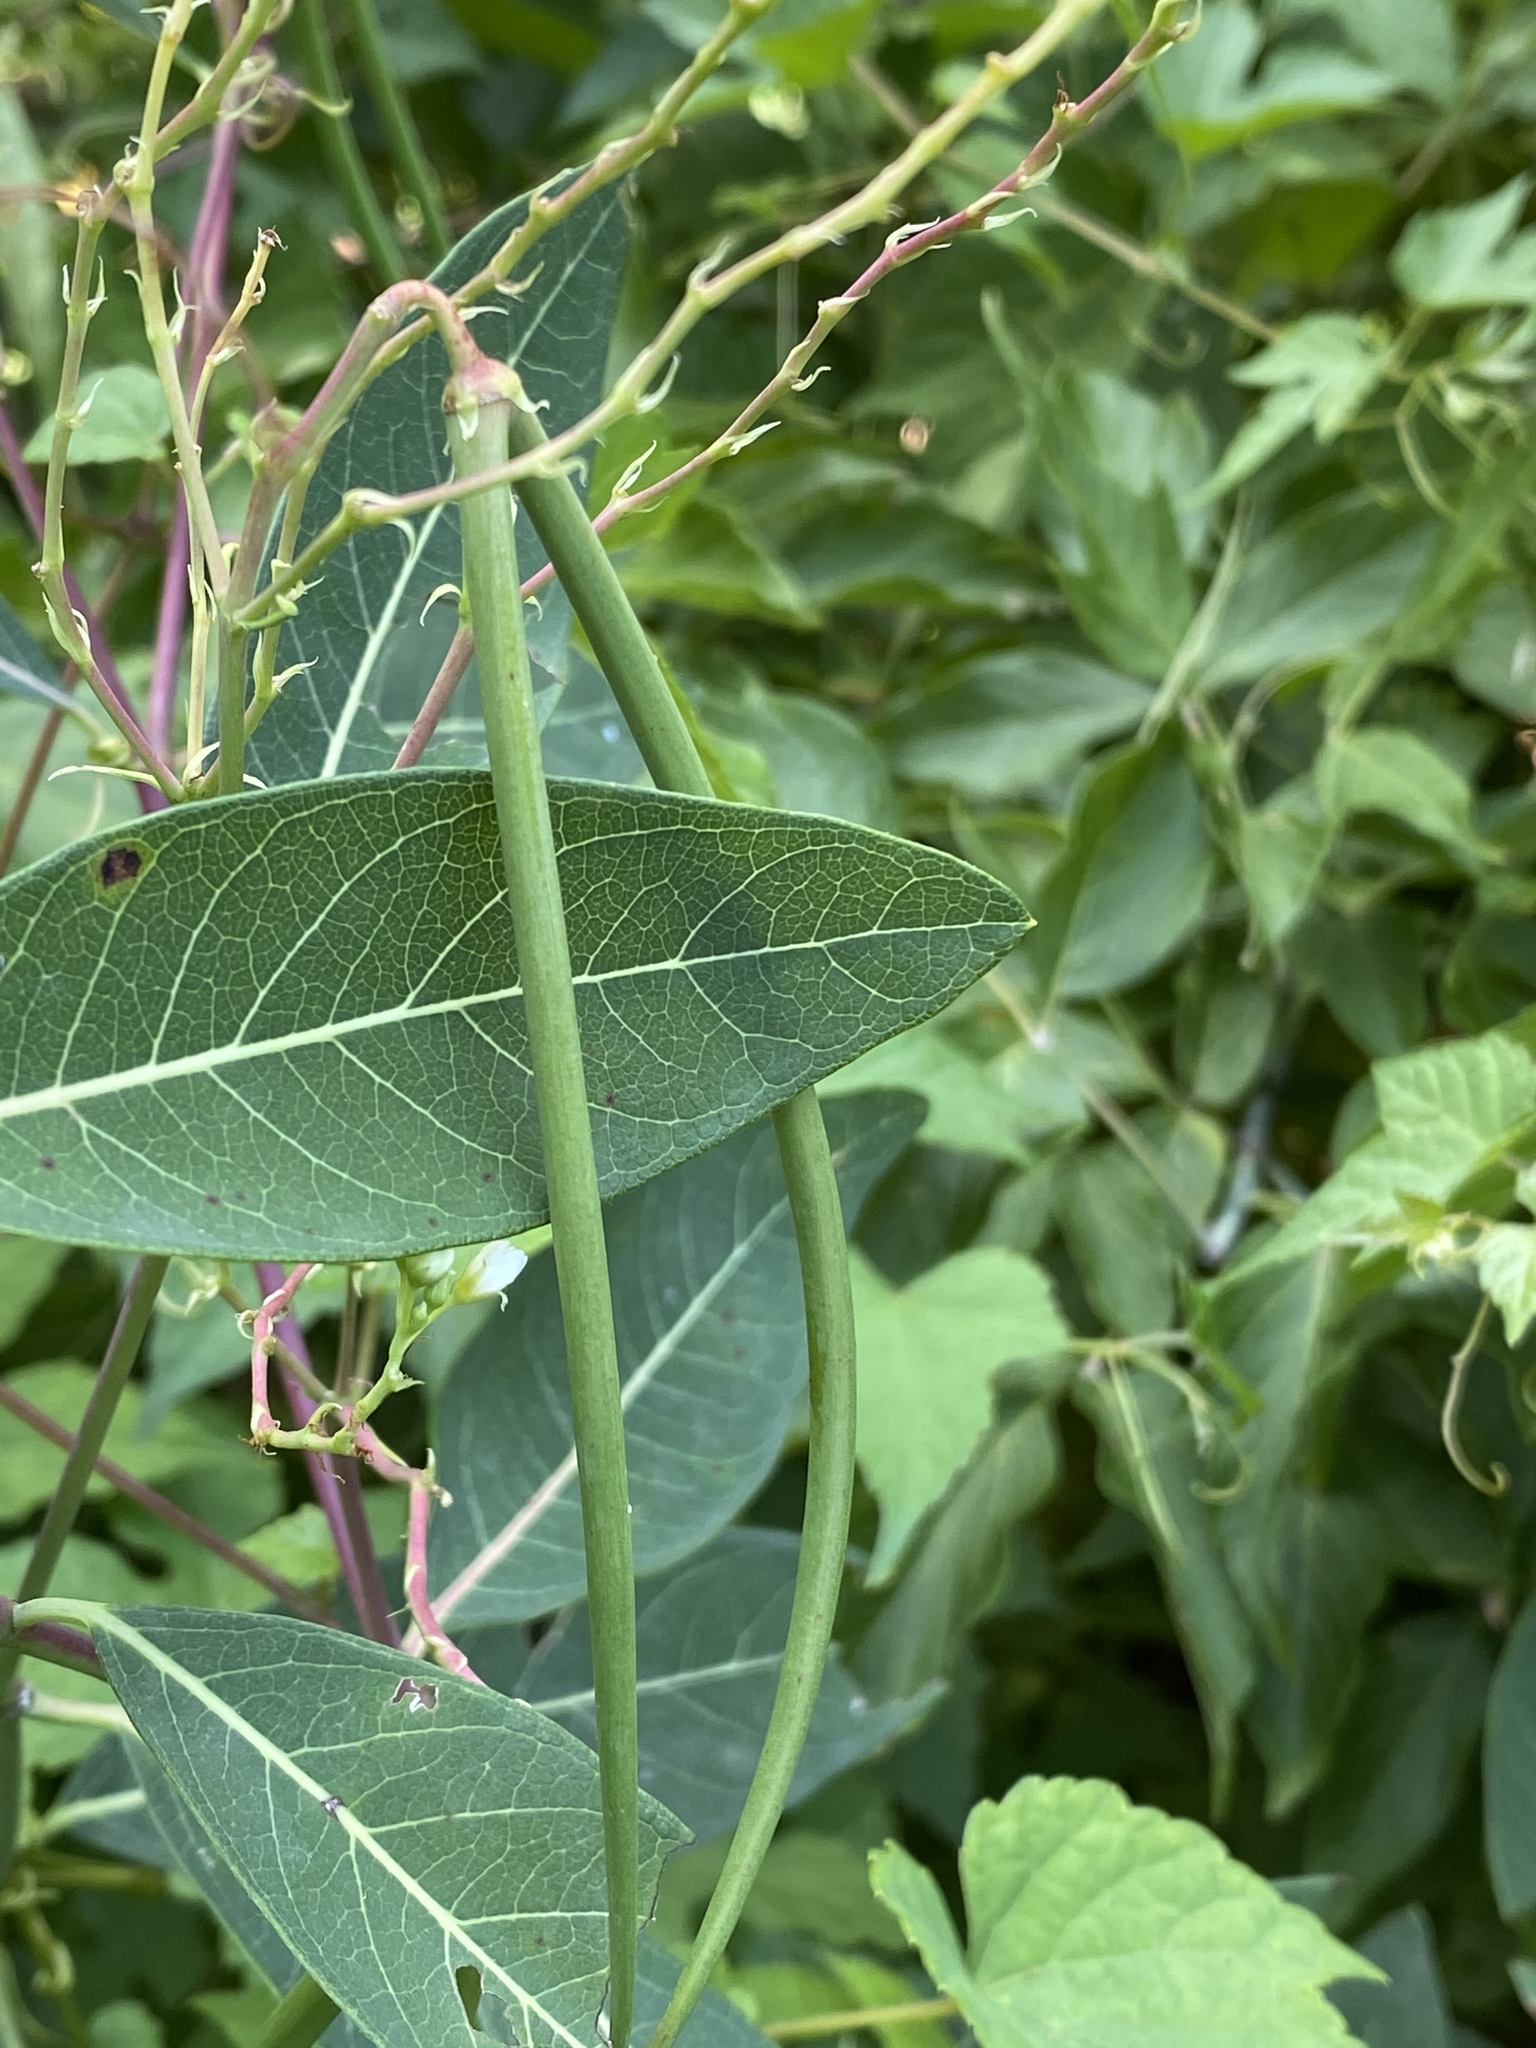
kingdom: Plantae
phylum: Tracheophyta
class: Magnoliopsida
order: Gentianales
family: Apocynaceae
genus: Apocynum
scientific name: Apocynum cannabinum
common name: Hemp dogbane
